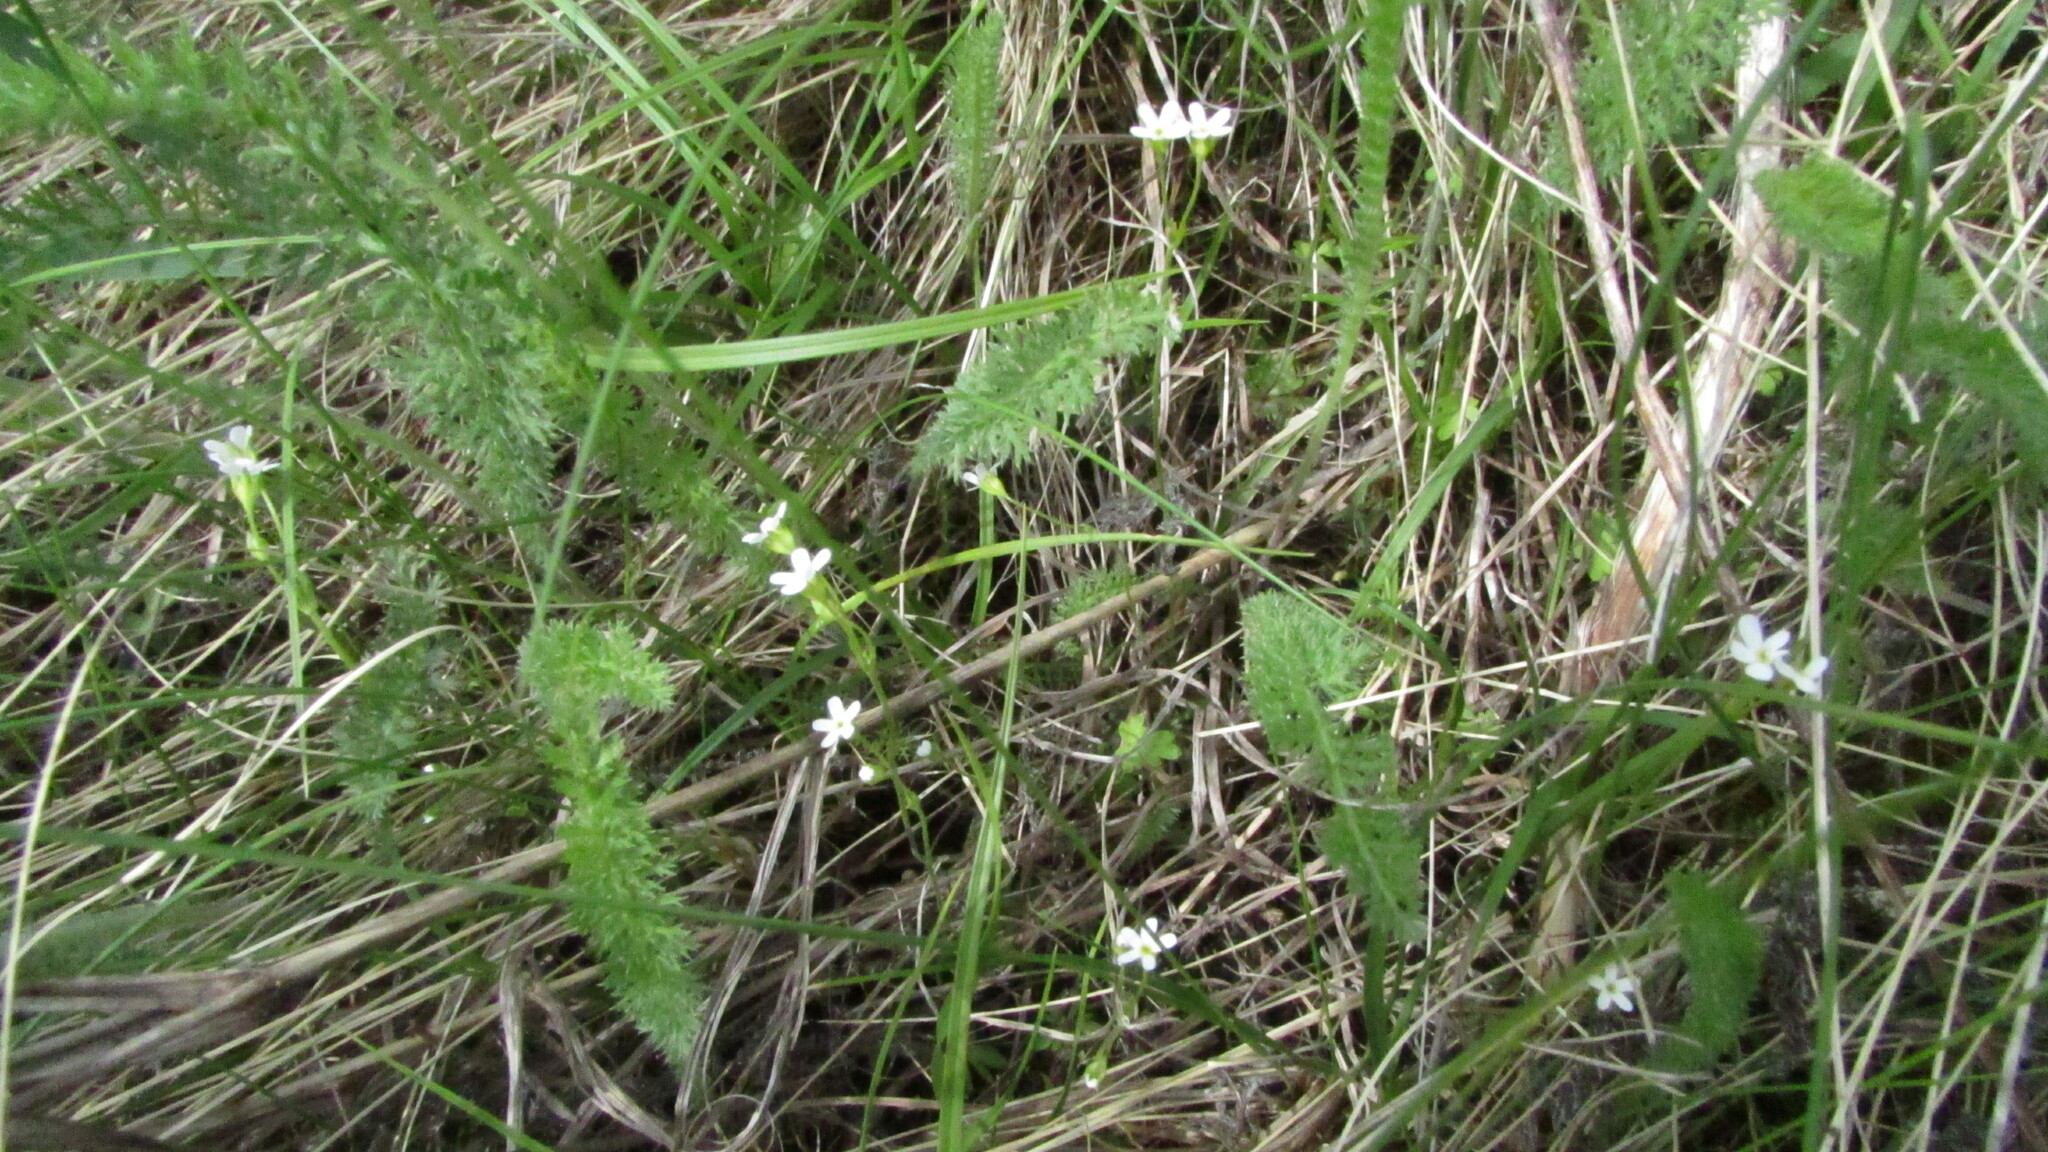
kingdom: Plantae
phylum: Tracheophyta
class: Magnoliopsida
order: Ericales
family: Primulaceae
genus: Androsace
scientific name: Androsace septentrionalis
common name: Hairy northern fairy-candelabra
